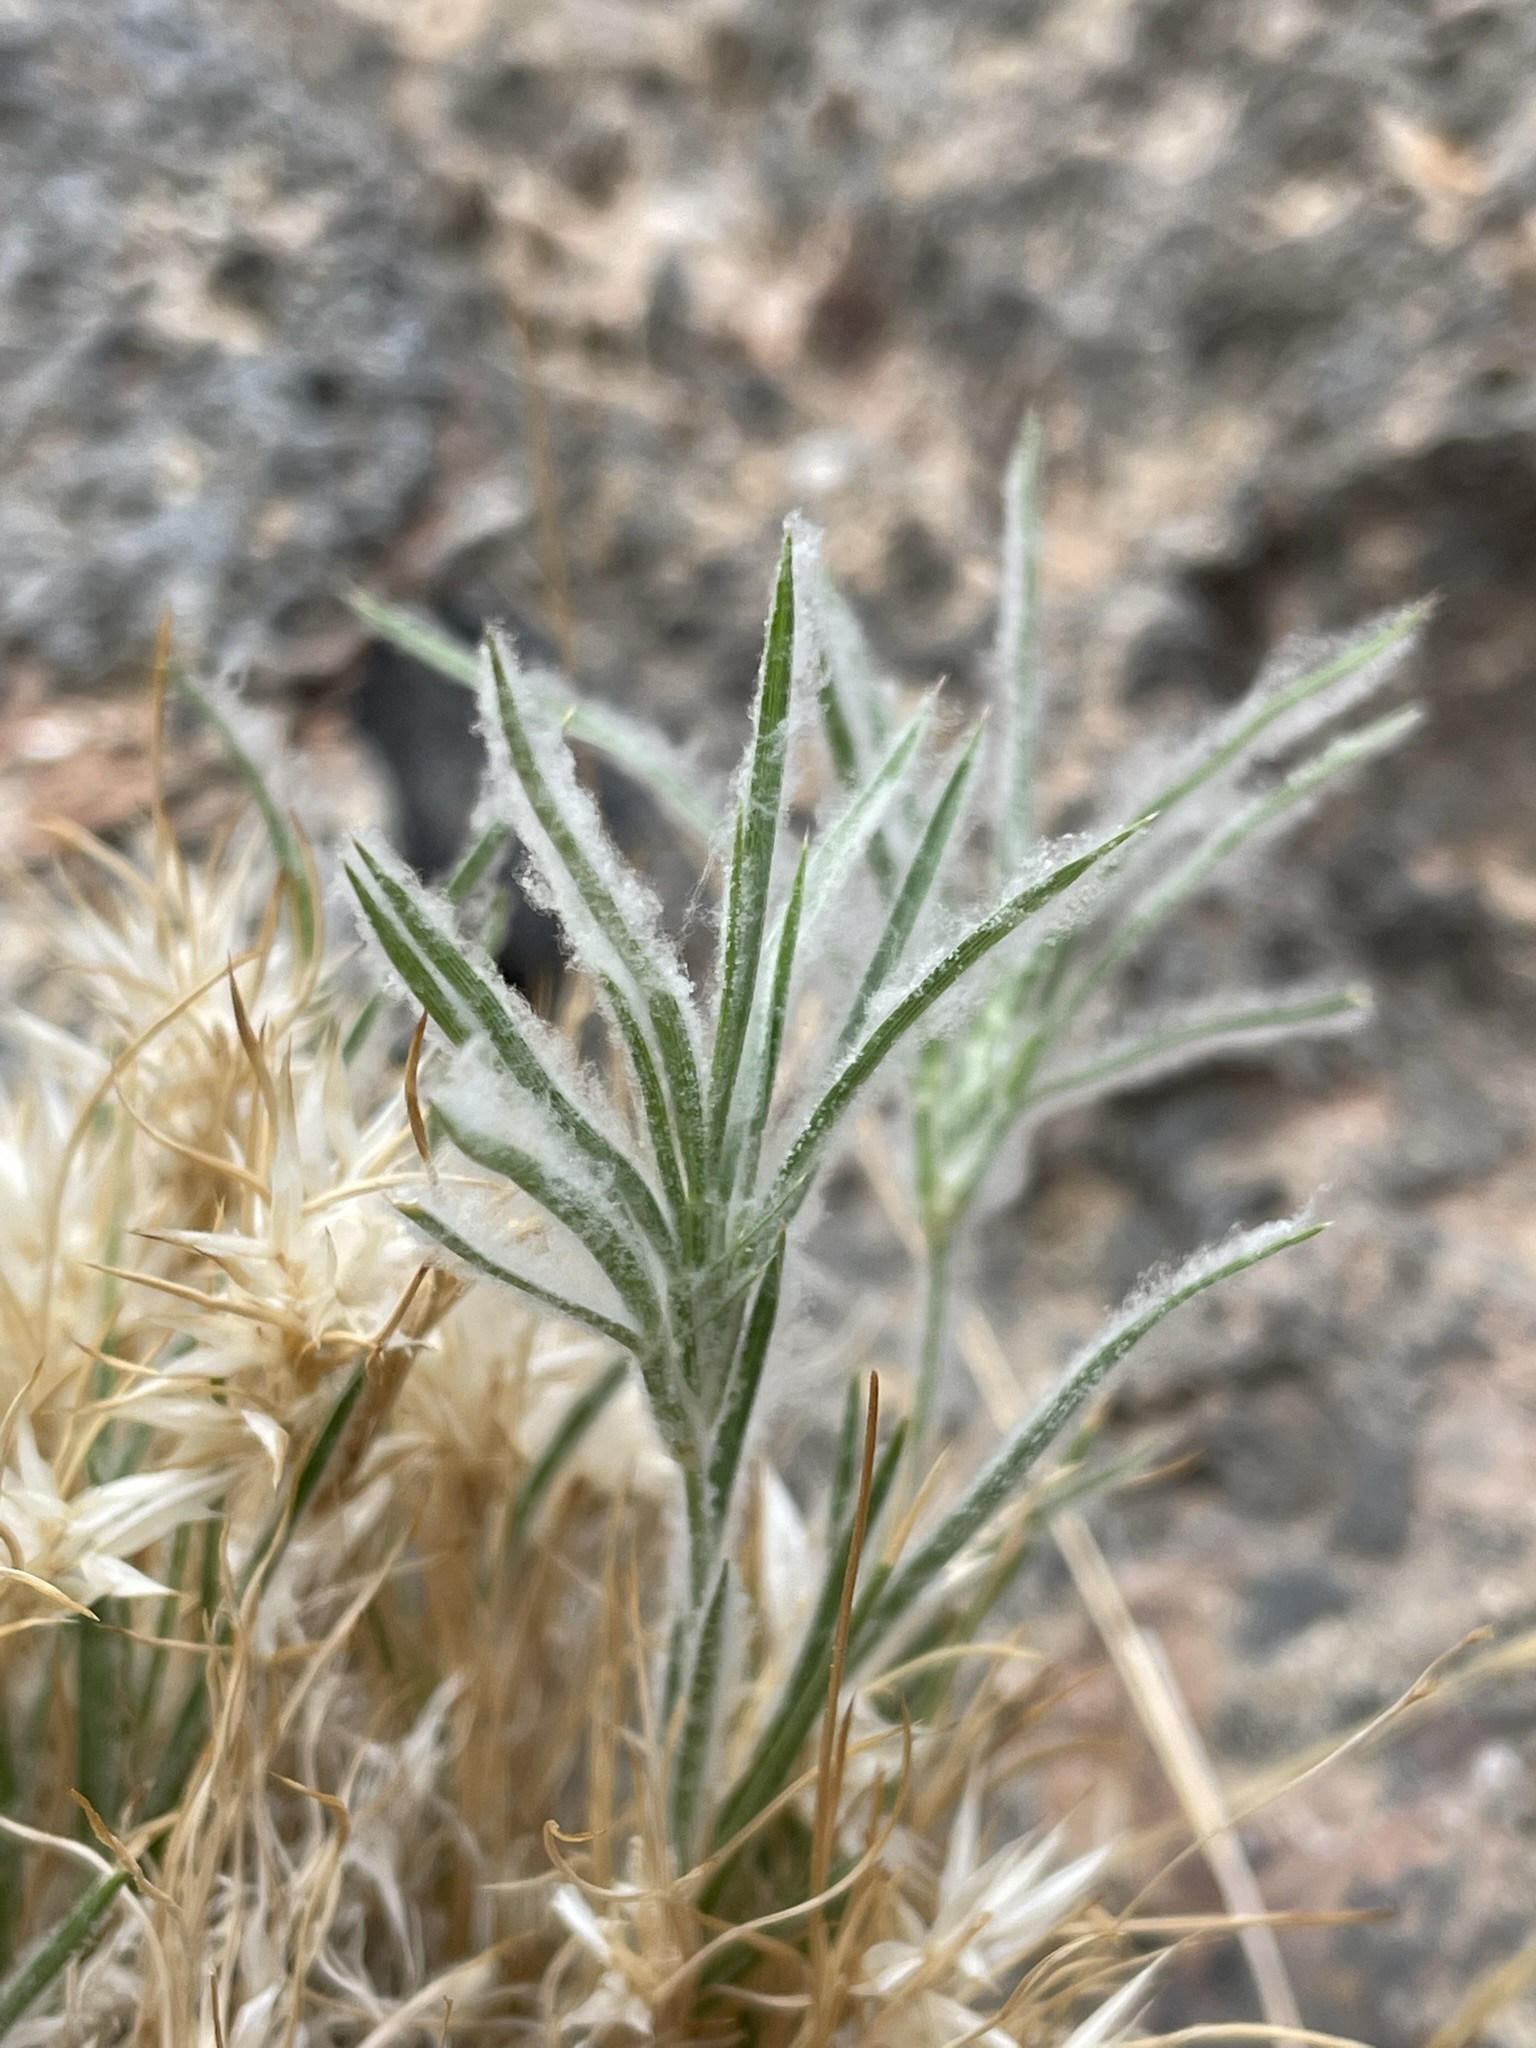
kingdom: Plantae
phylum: Tracheophyta
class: Liliopsida
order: Poales
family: Poaceae
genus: Dasyochloa
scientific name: Dasyochloa pulchella
